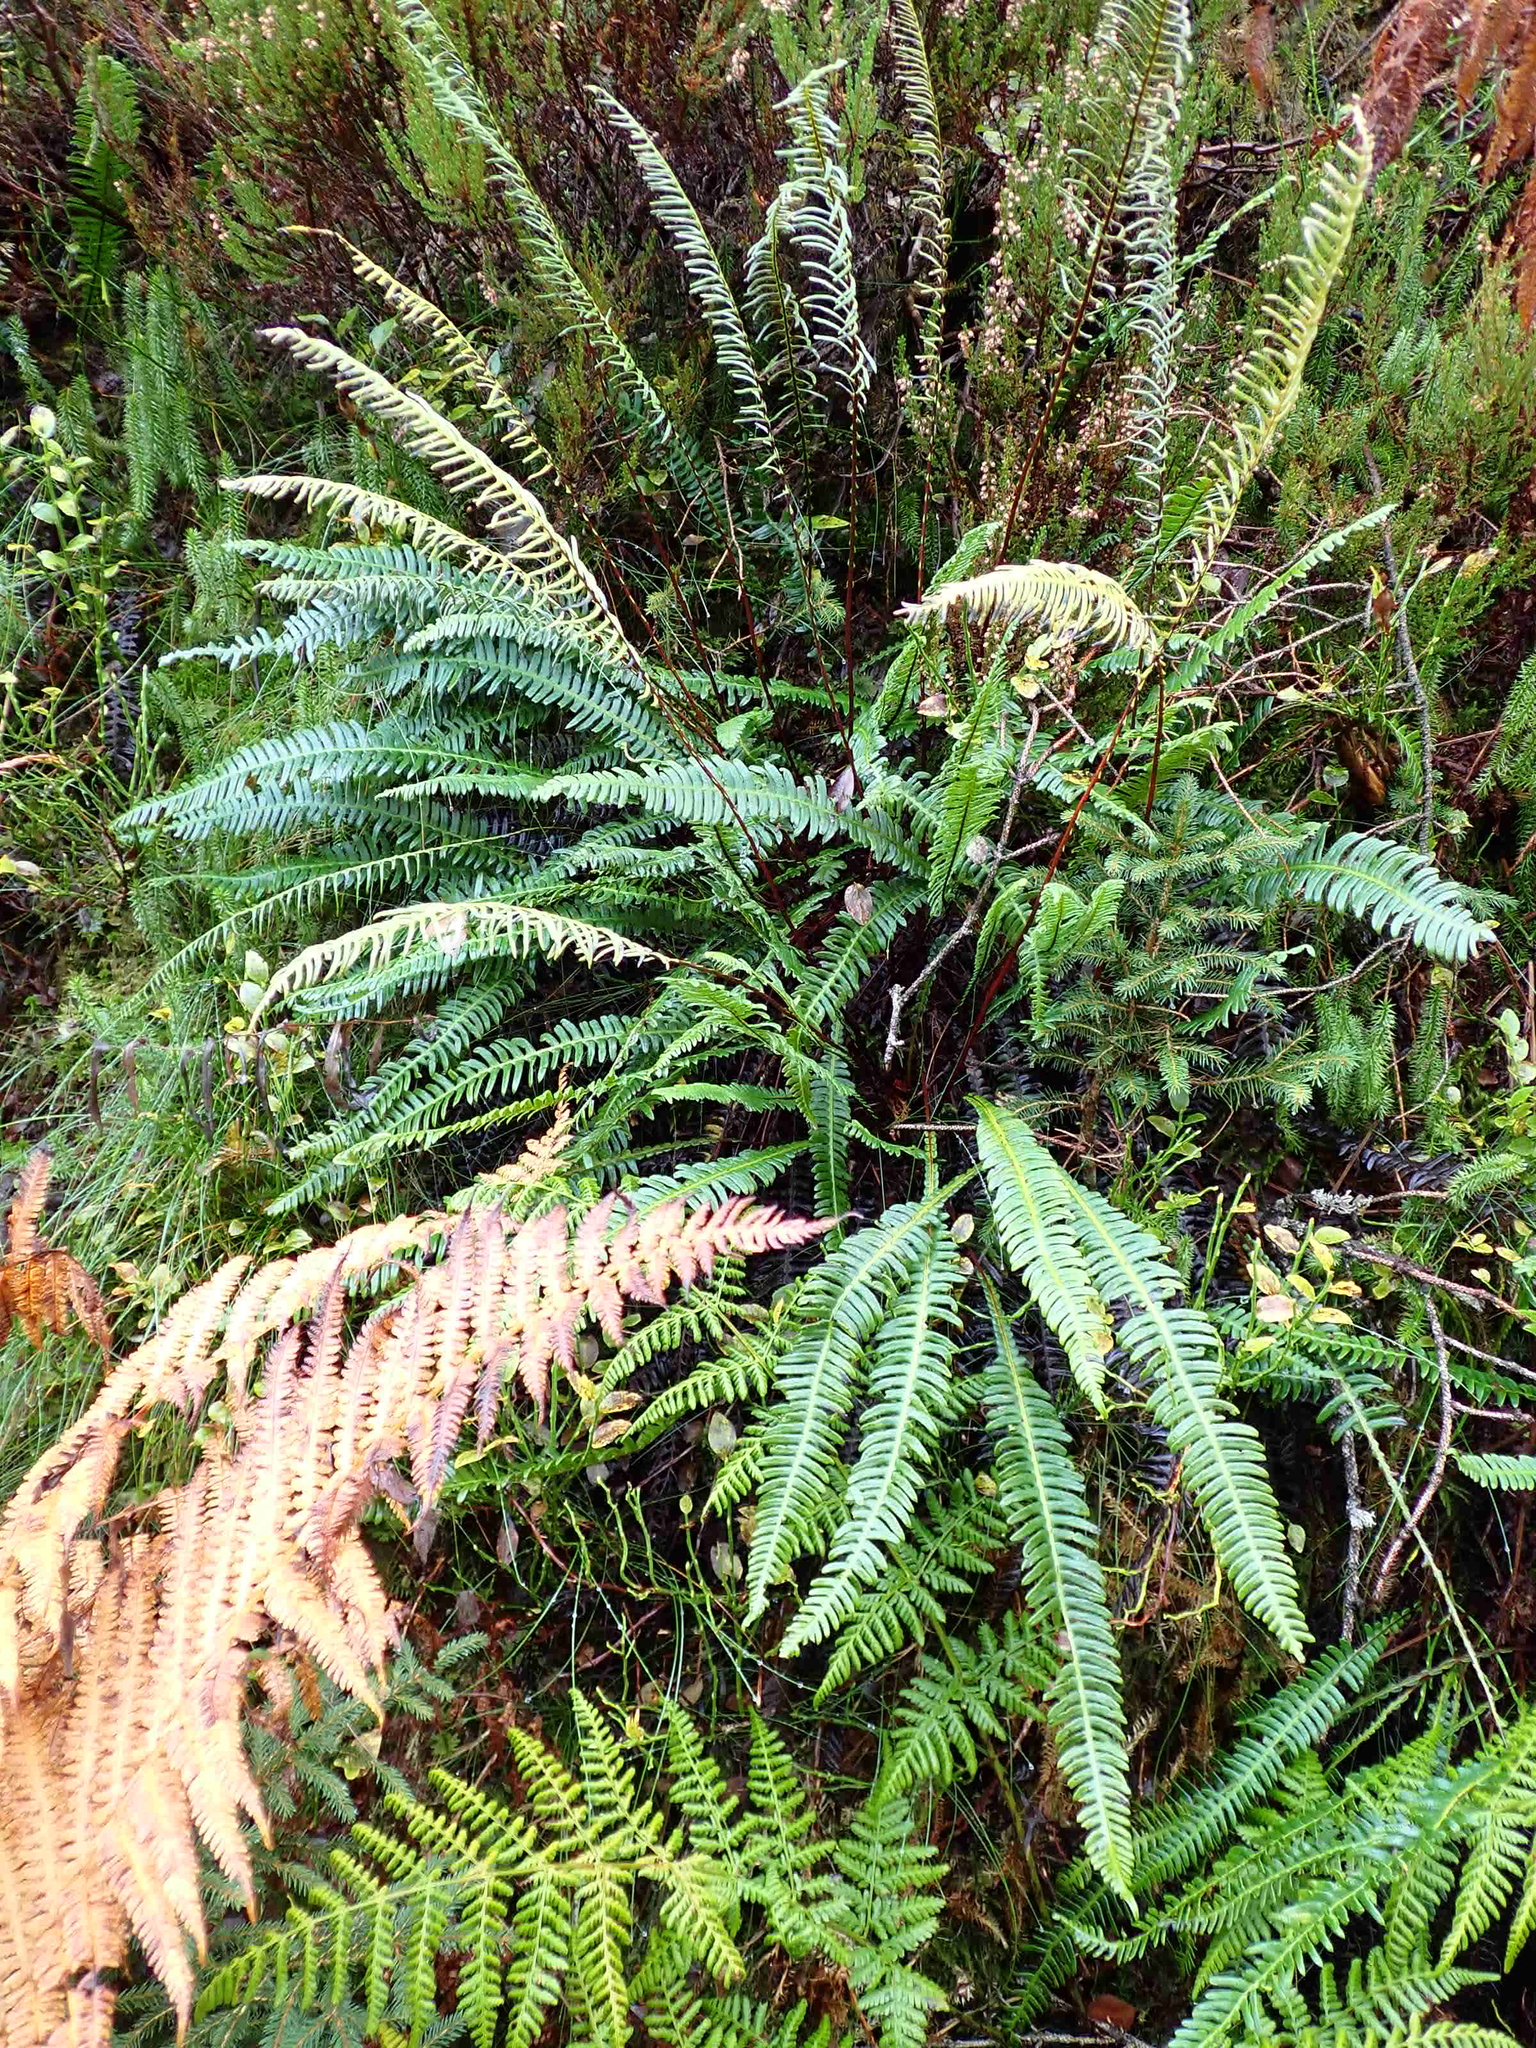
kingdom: Plantae
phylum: Tracheophyta
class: Polypodiopsida
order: Polypodiales
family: Blechnaceae
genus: Struthiopteris
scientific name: Struthiopteris spicant
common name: Deer fern
